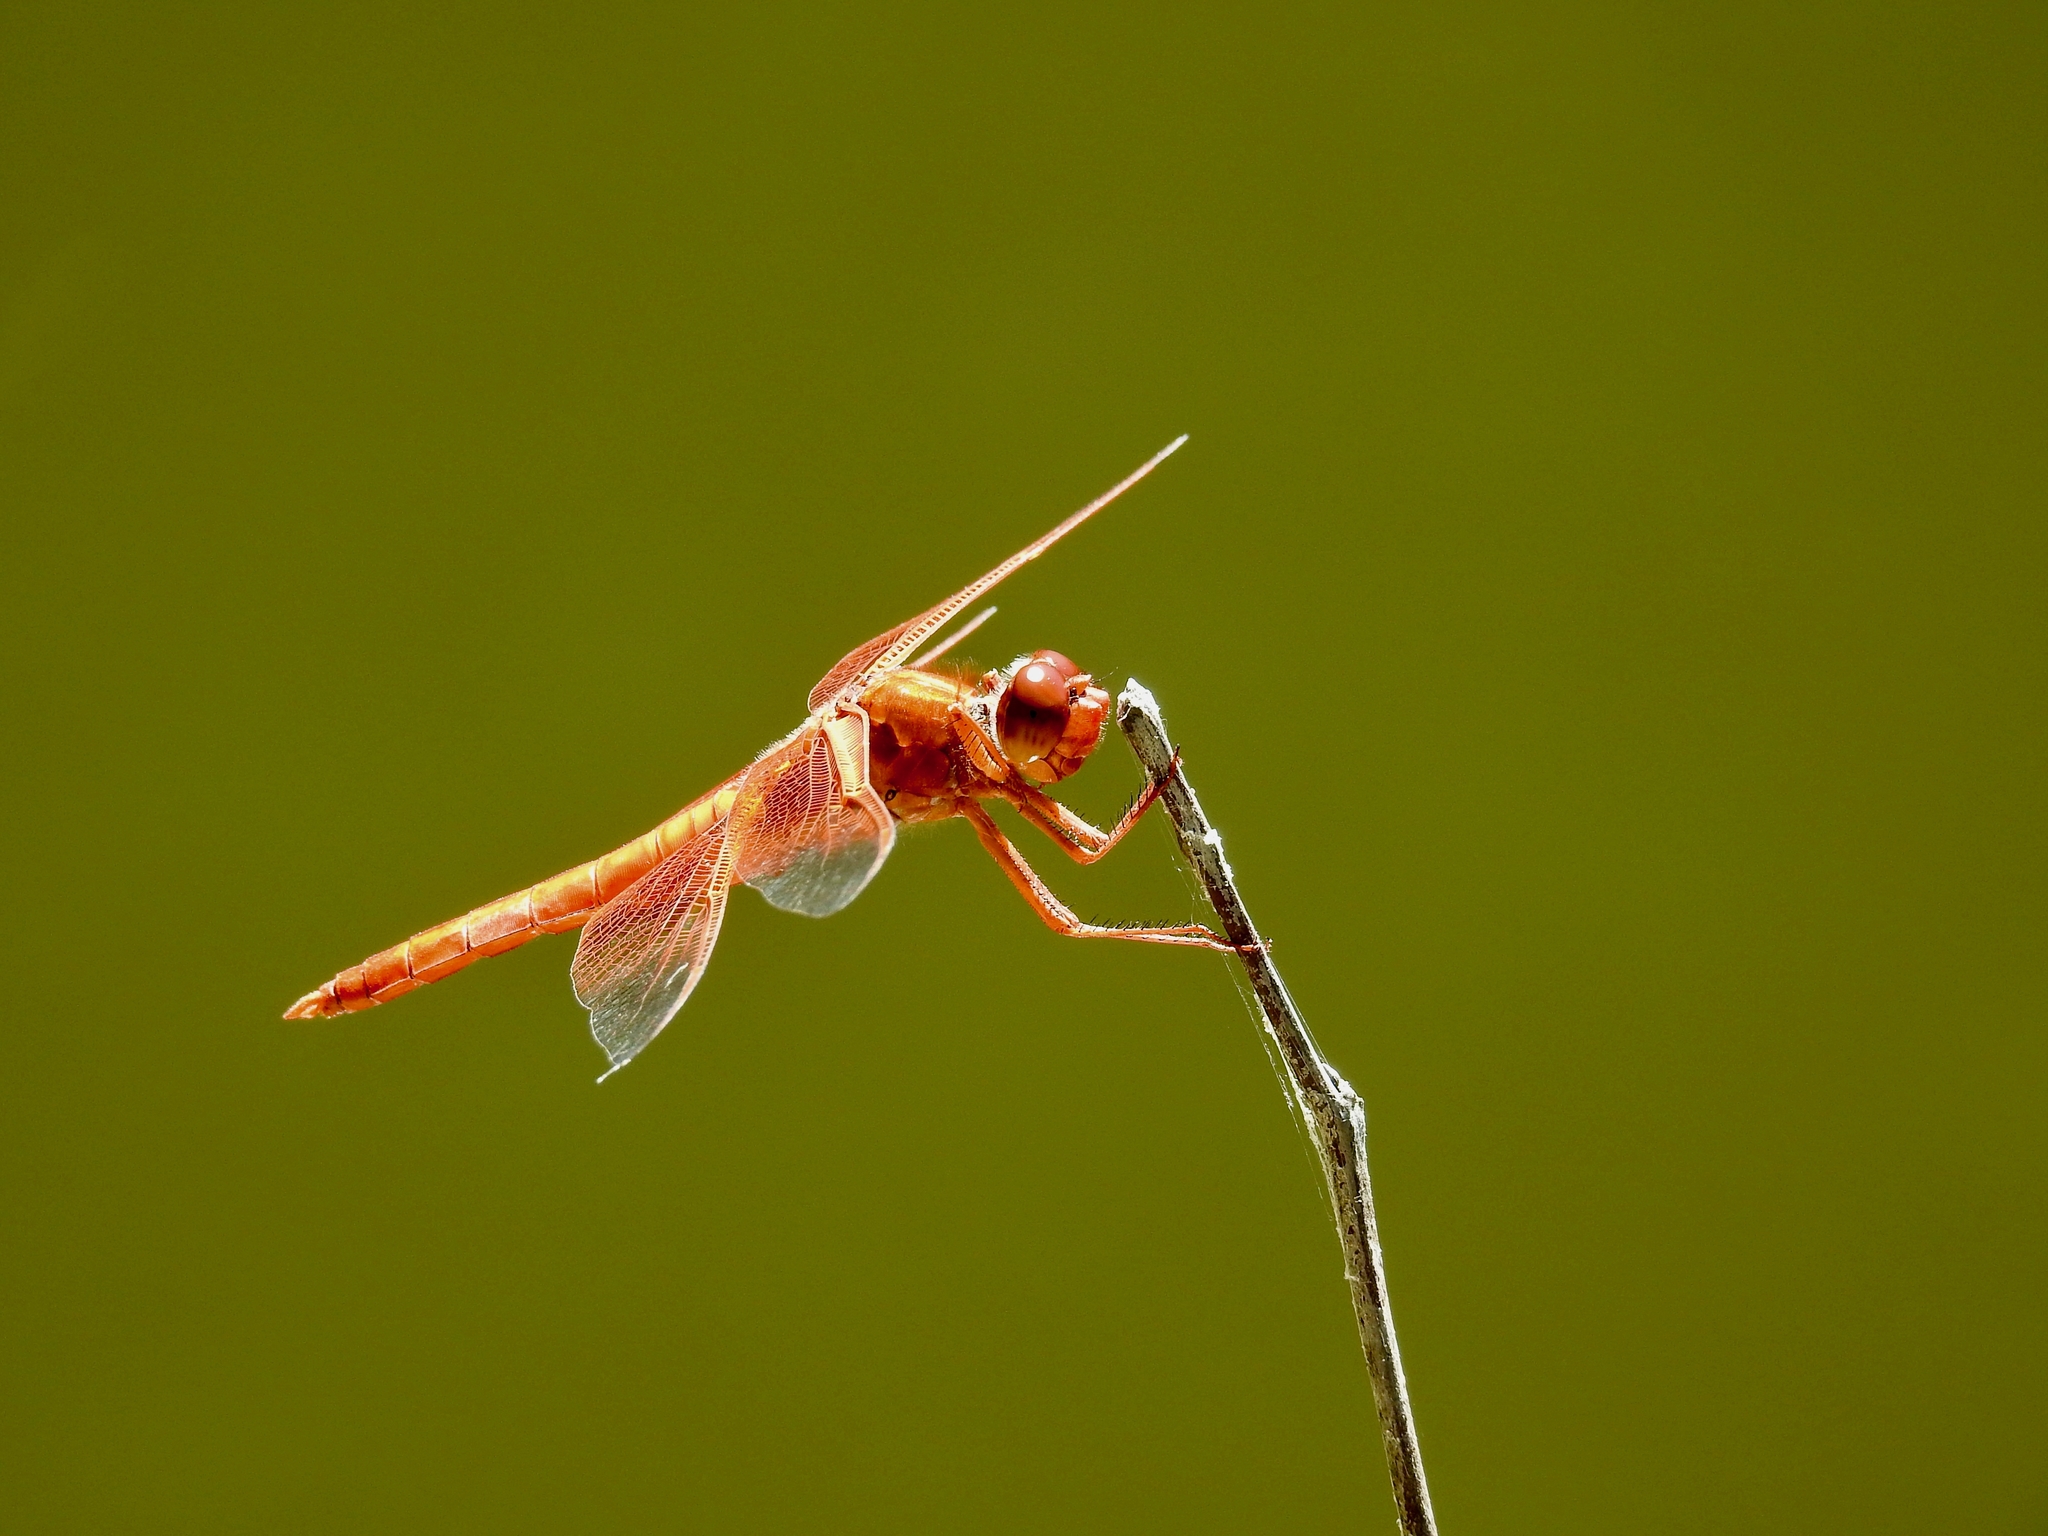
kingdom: Animalia
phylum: Arthropoda
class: Insecta
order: Odonata
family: Libellulidae
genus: Libellula
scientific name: Libellula saturata
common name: Flame skimmer
